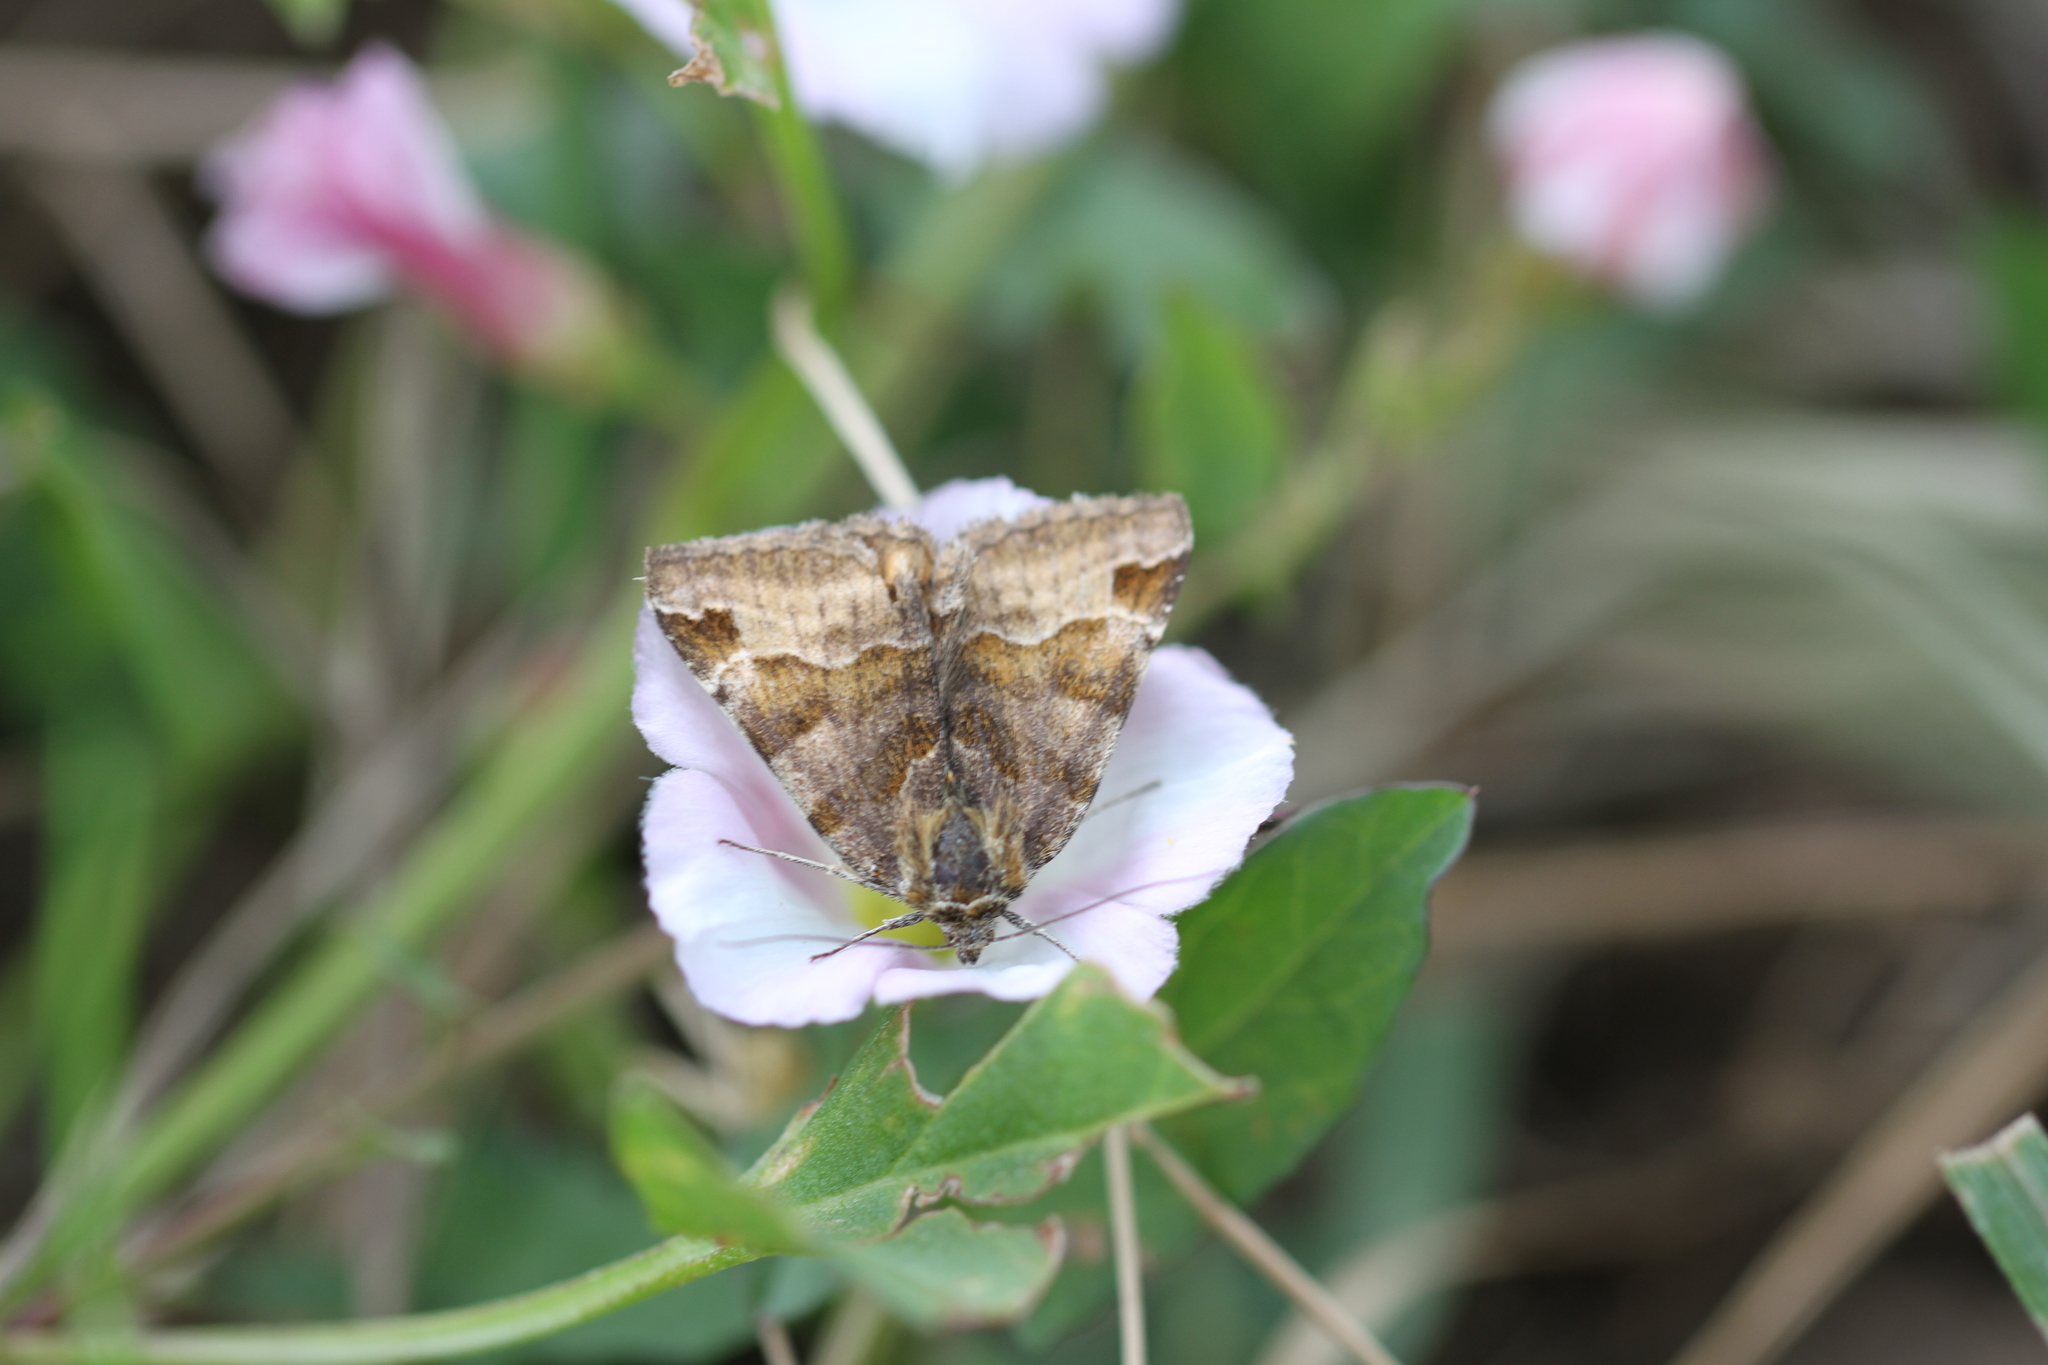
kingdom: Animalia
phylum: Arthropoda
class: Insecta
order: Lepidoptera
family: Erebidae
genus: Euclidia
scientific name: Euclidia glyphica
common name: Burnet companion
